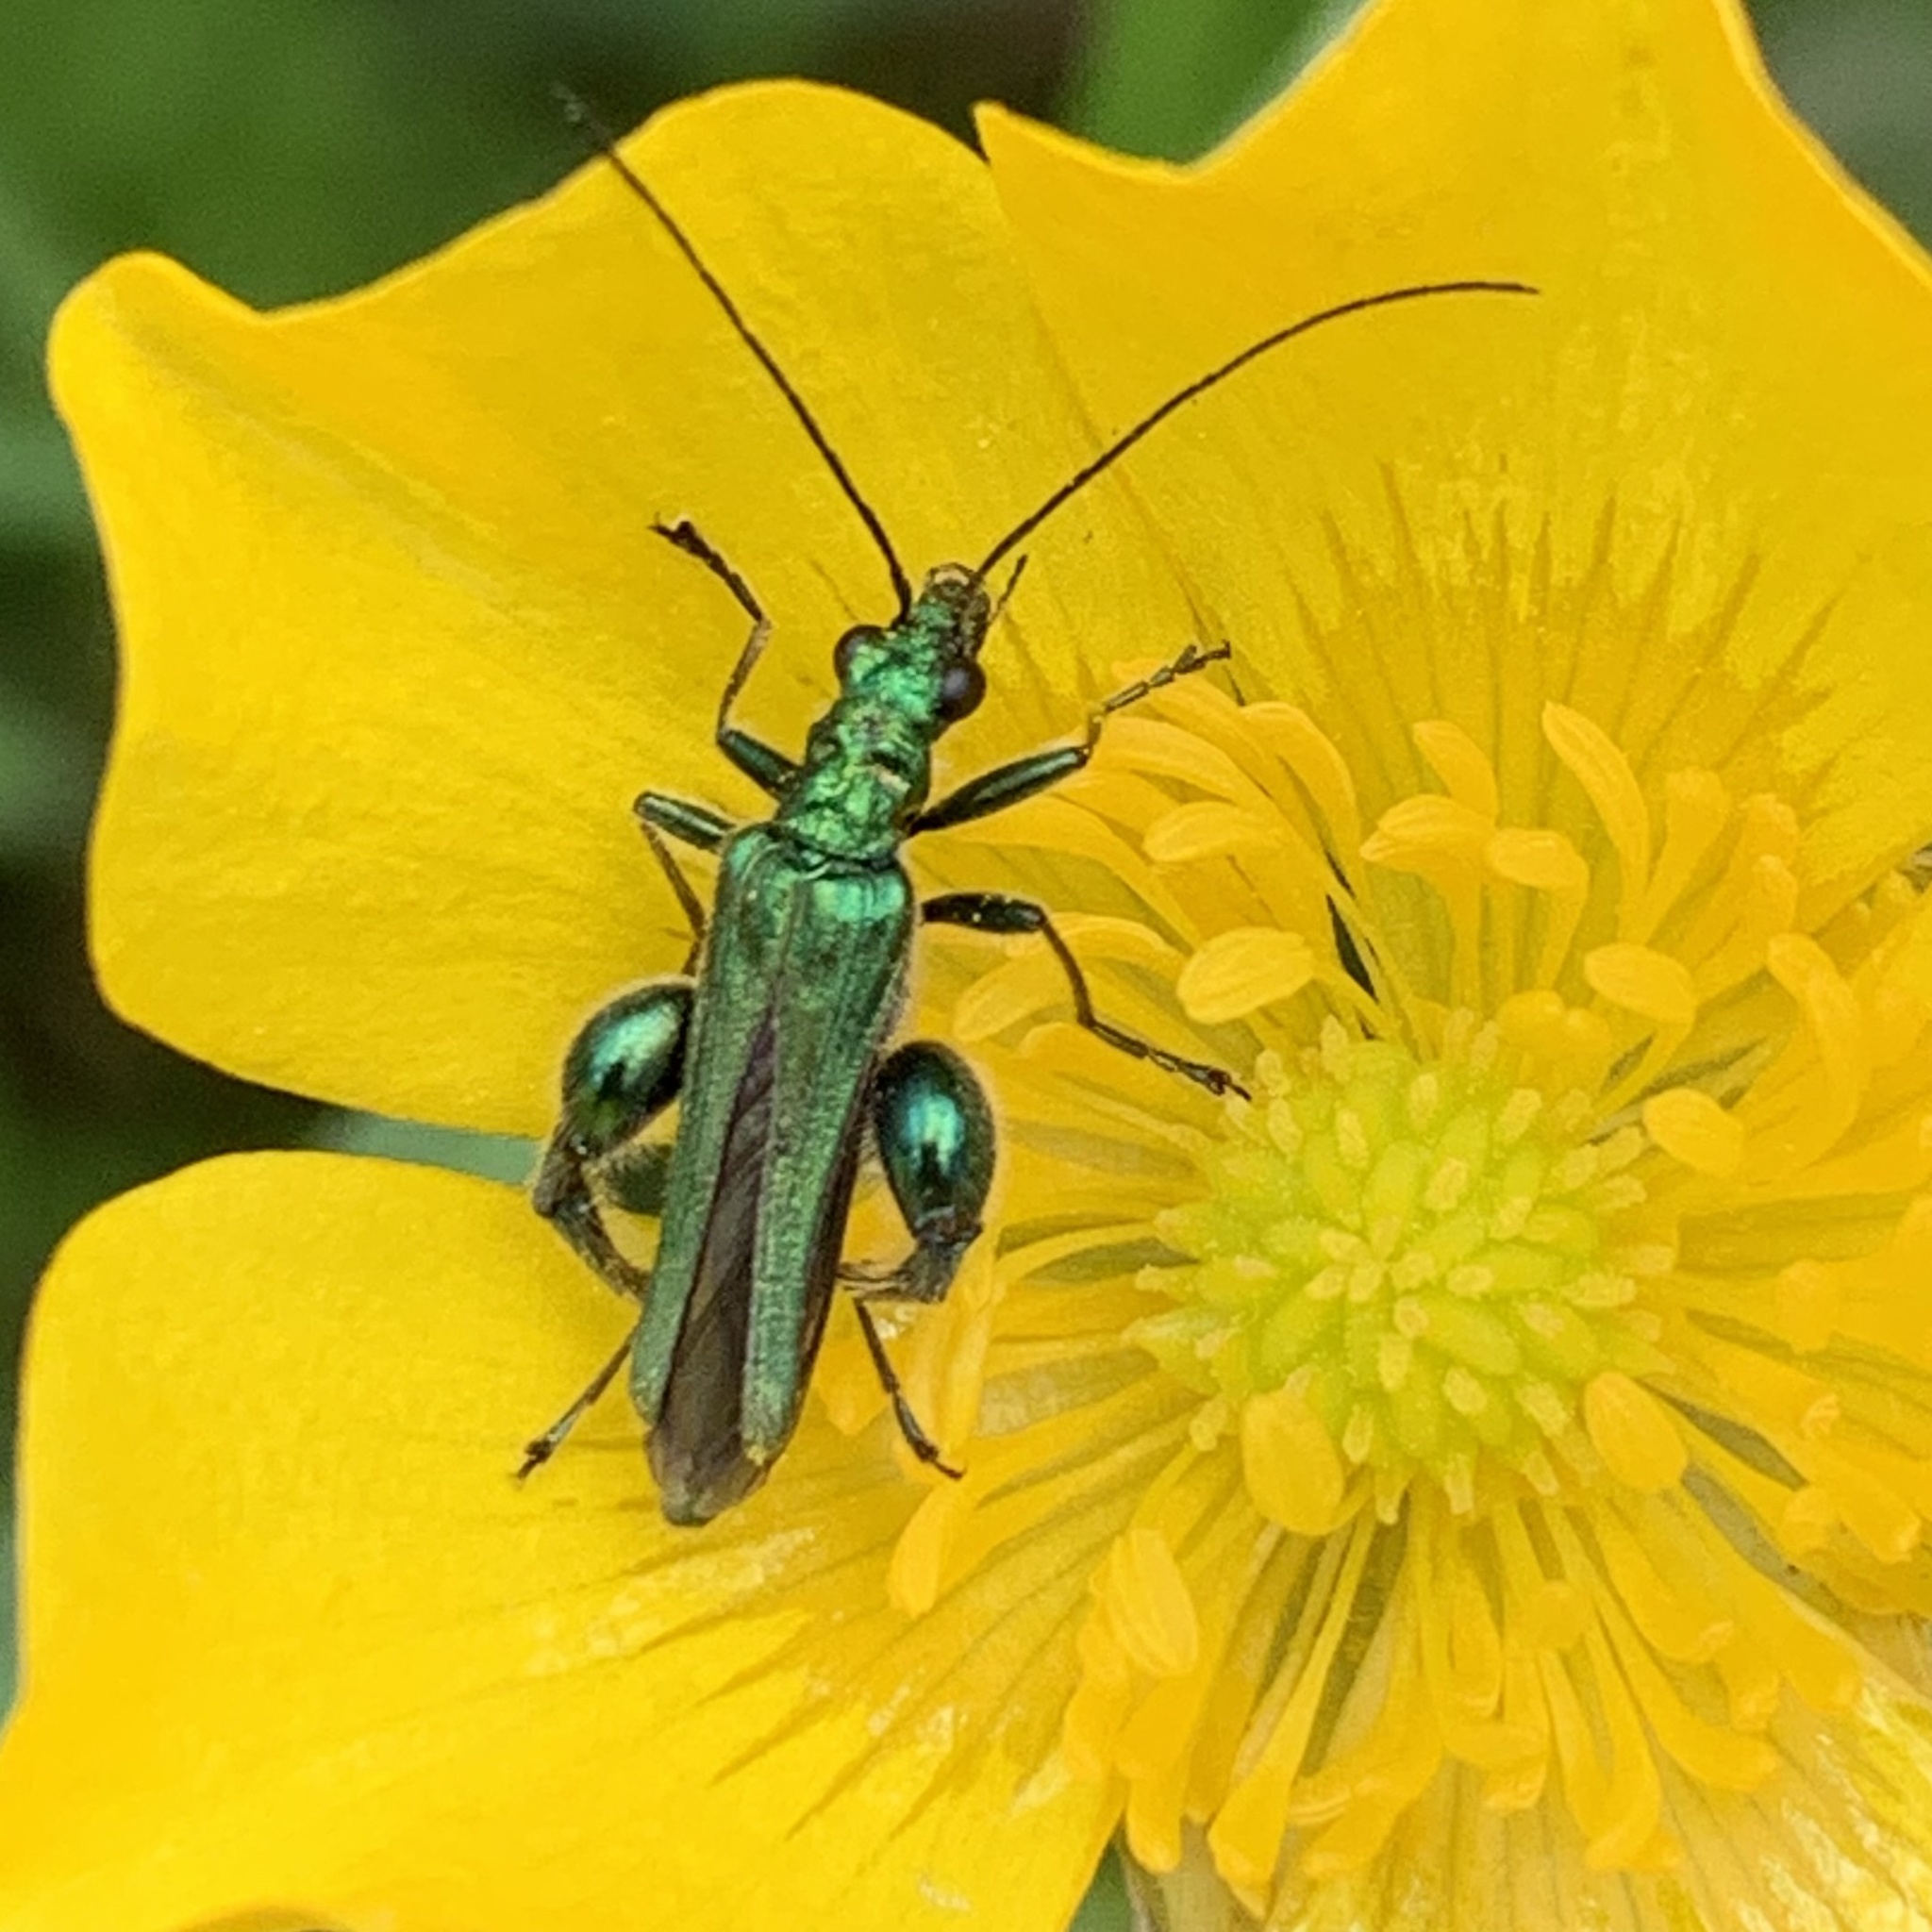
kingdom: Animalia
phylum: Arthropoda
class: Insecta
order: Coleoptera
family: Oedemeridae
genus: Oedemera
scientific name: Oedemera nobilis
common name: Swollen-thighed beetle
